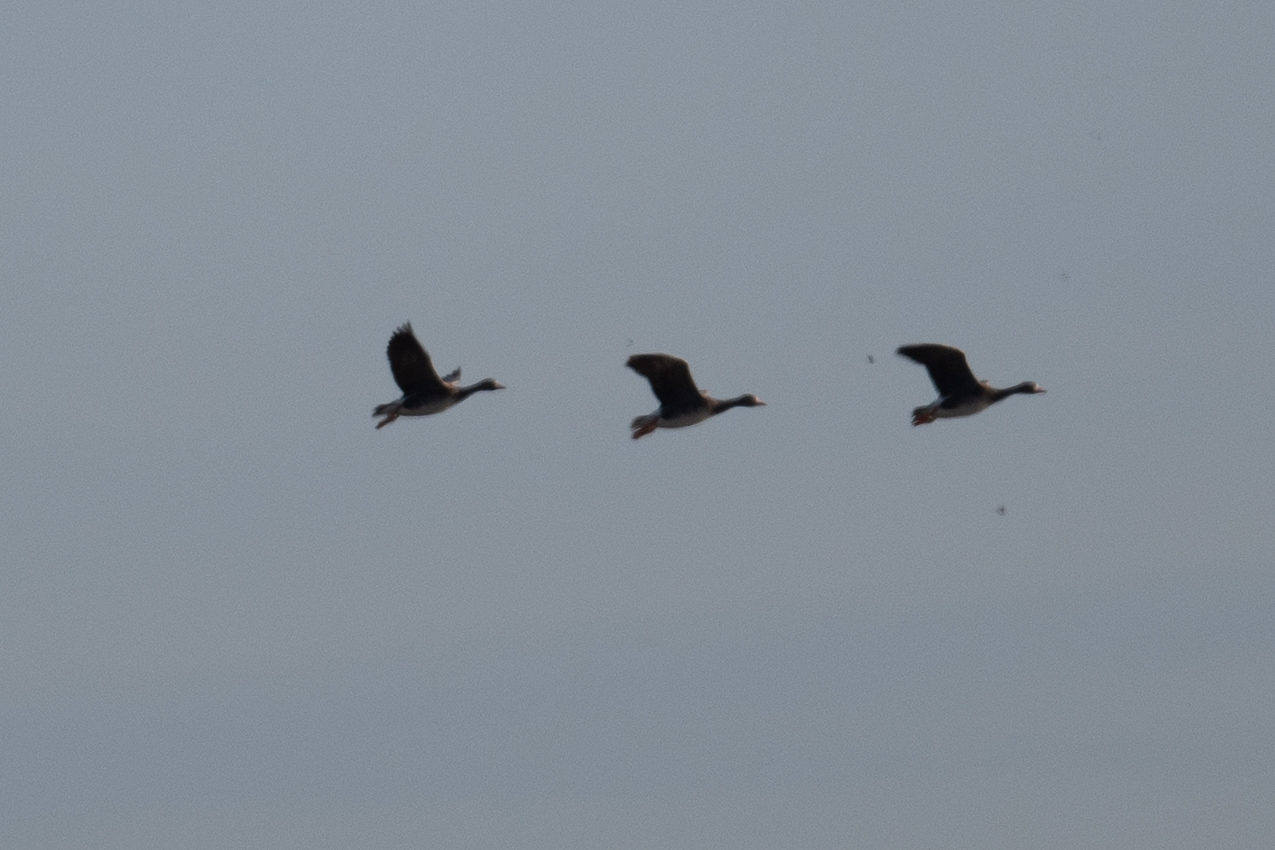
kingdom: Animalia
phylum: Chordata
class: Aves
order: Anseriformes
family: Anatidae
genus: Anser
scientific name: Anser albifrons
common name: Greater white-fronted goose
